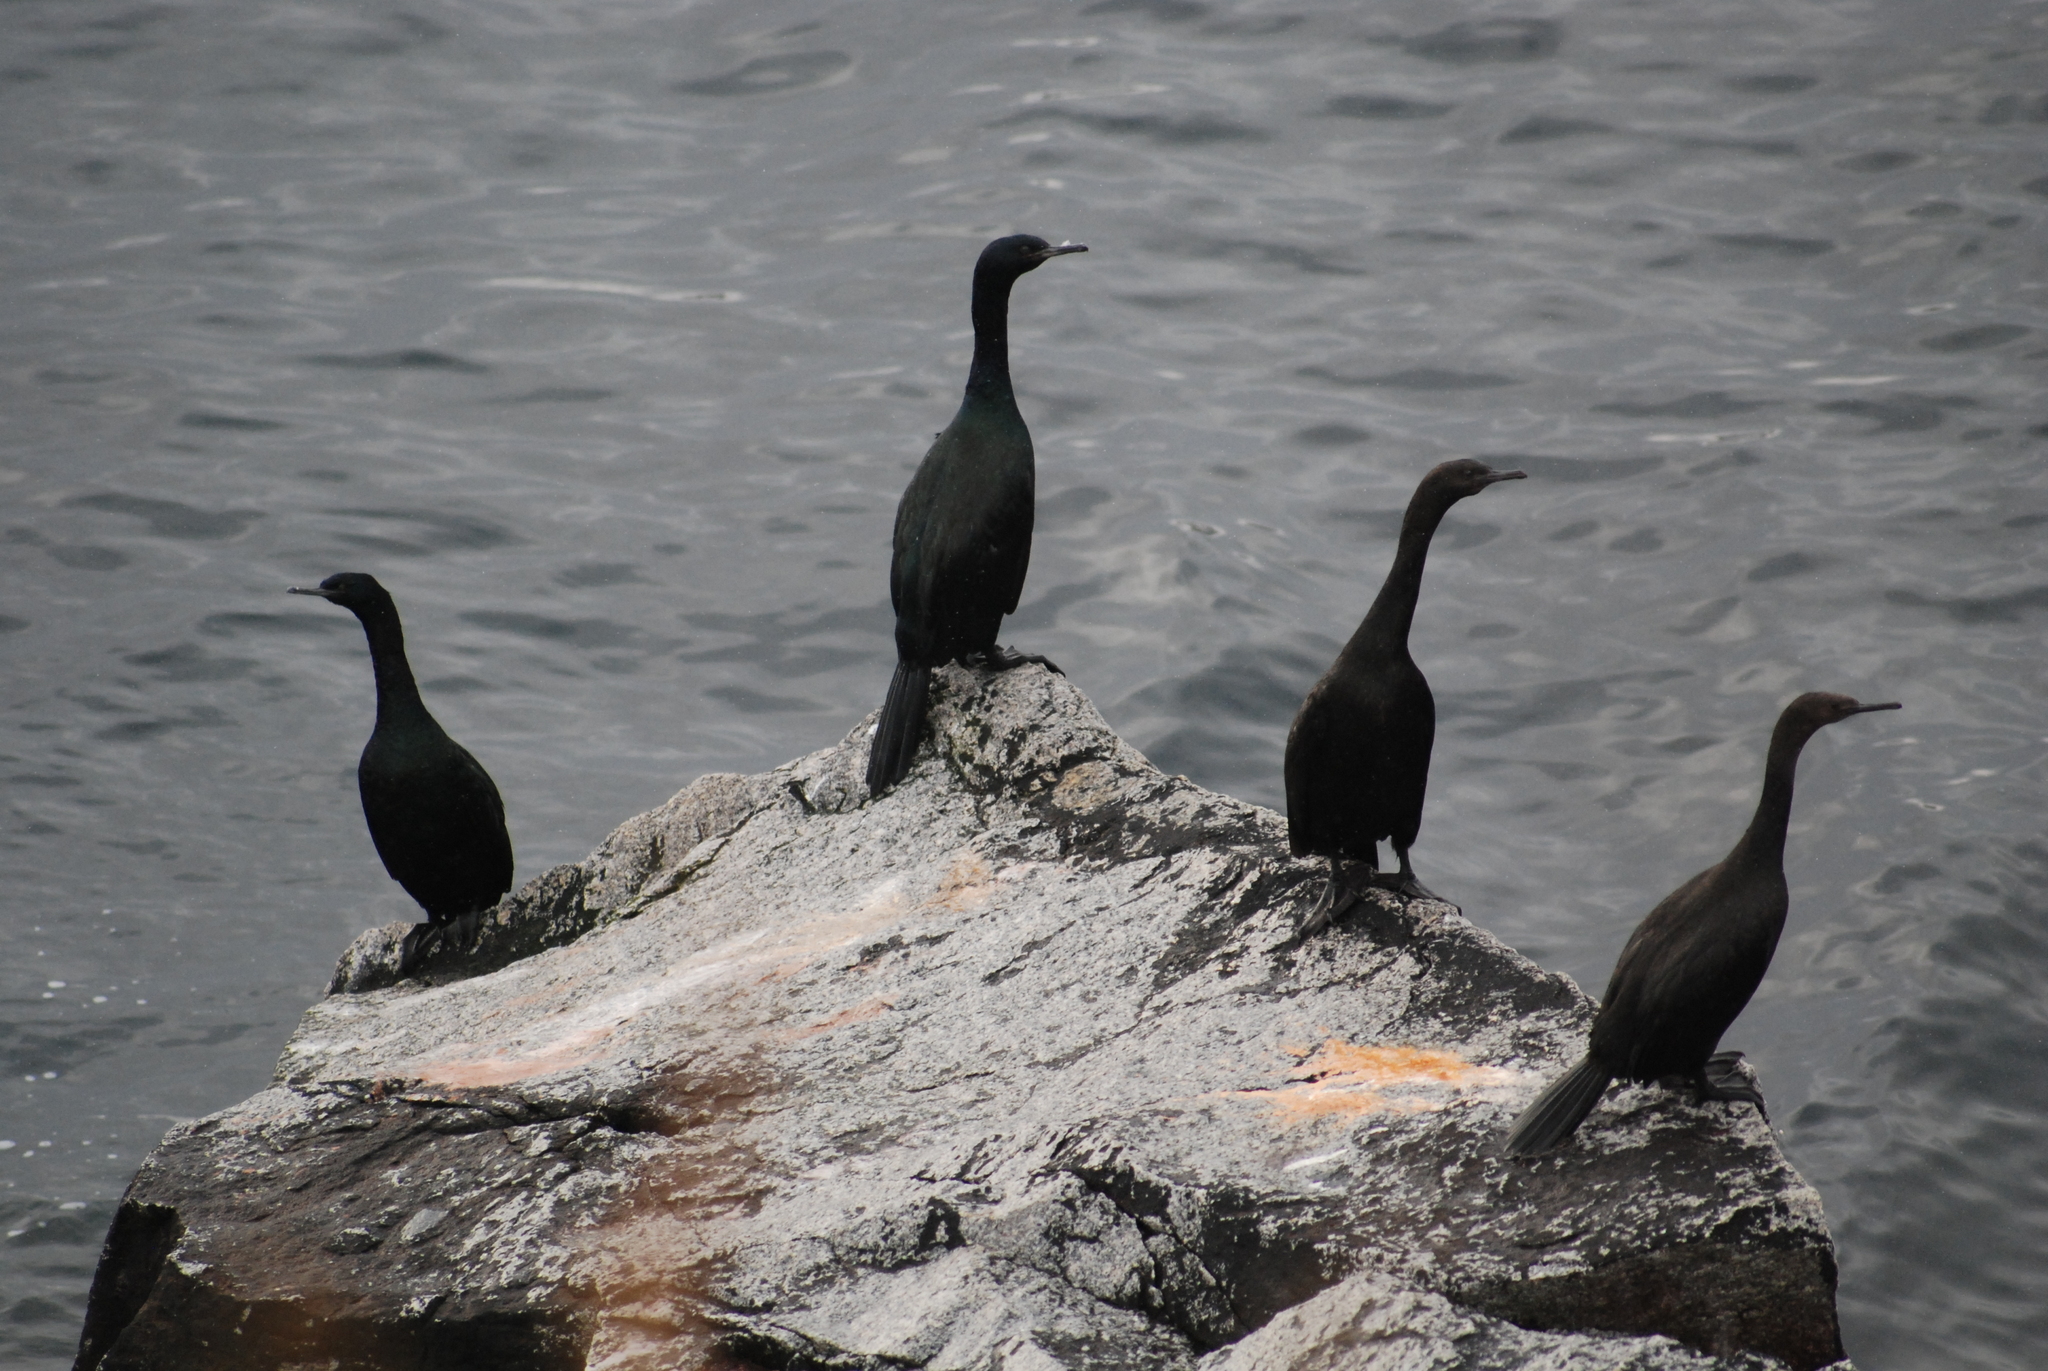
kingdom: Animalia
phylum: Chordata
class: Aves
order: Suliformes
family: Phalacrocoracidae
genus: Phalacrocorax
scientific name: Phalacrocorax pelagicus
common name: Pelagic cormorant
